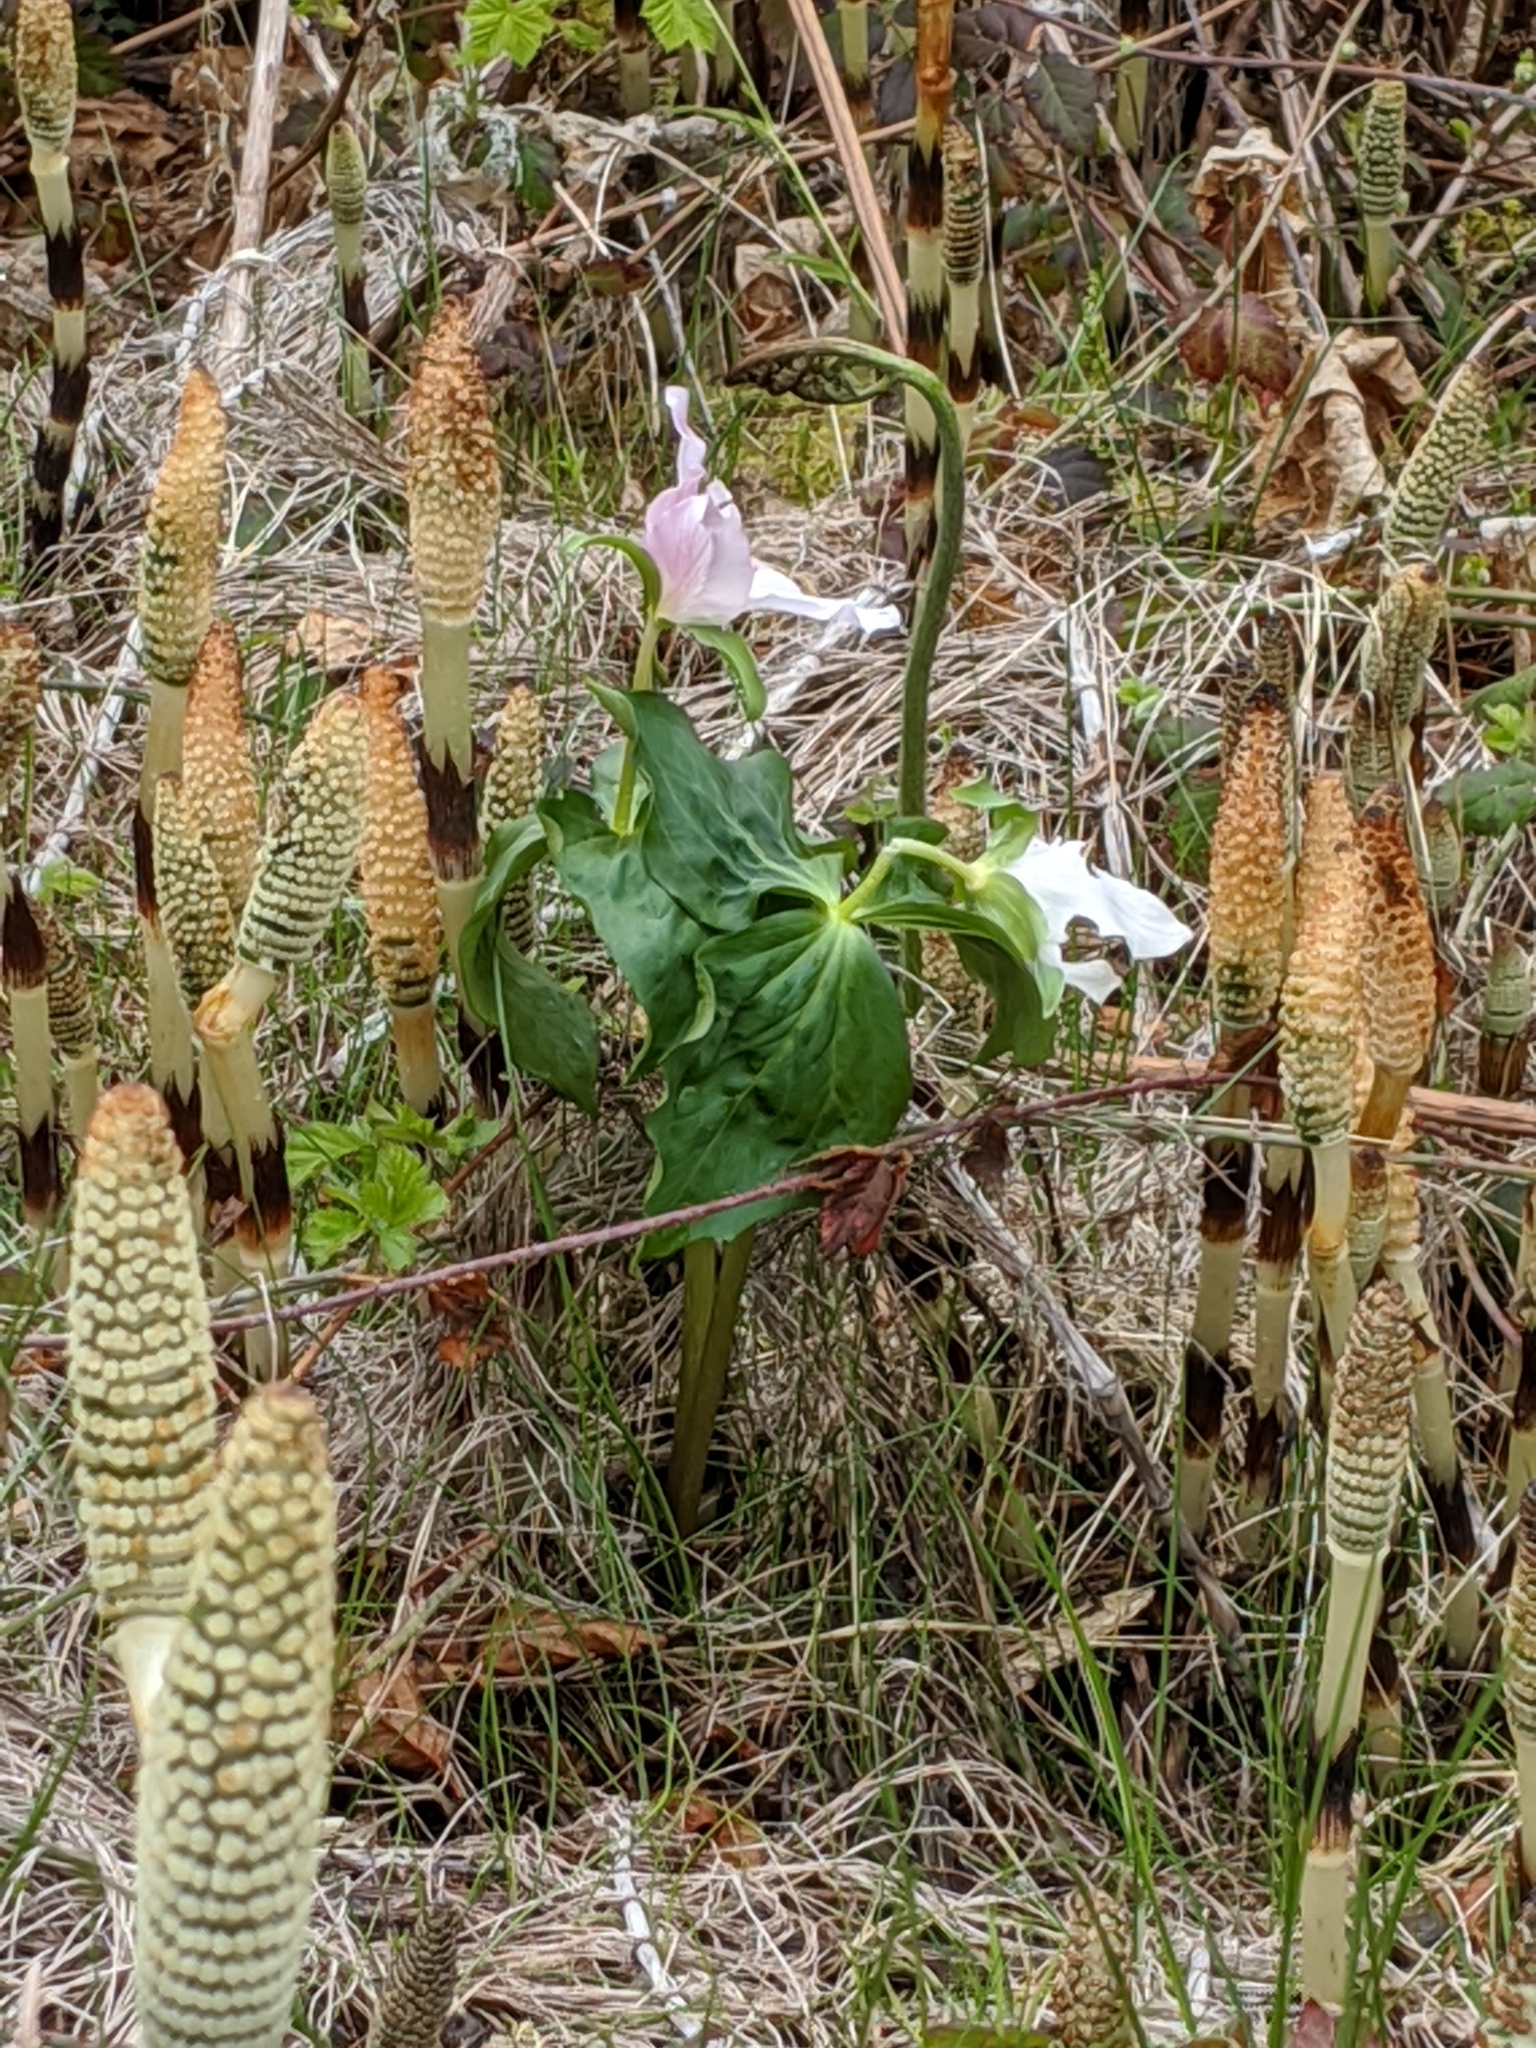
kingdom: Plantae
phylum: Tracheophyta
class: Liliopsida
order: Liliales
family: Melanthiaceae
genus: Trillium
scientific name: Trillium ovatum
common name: Pacific trillium
